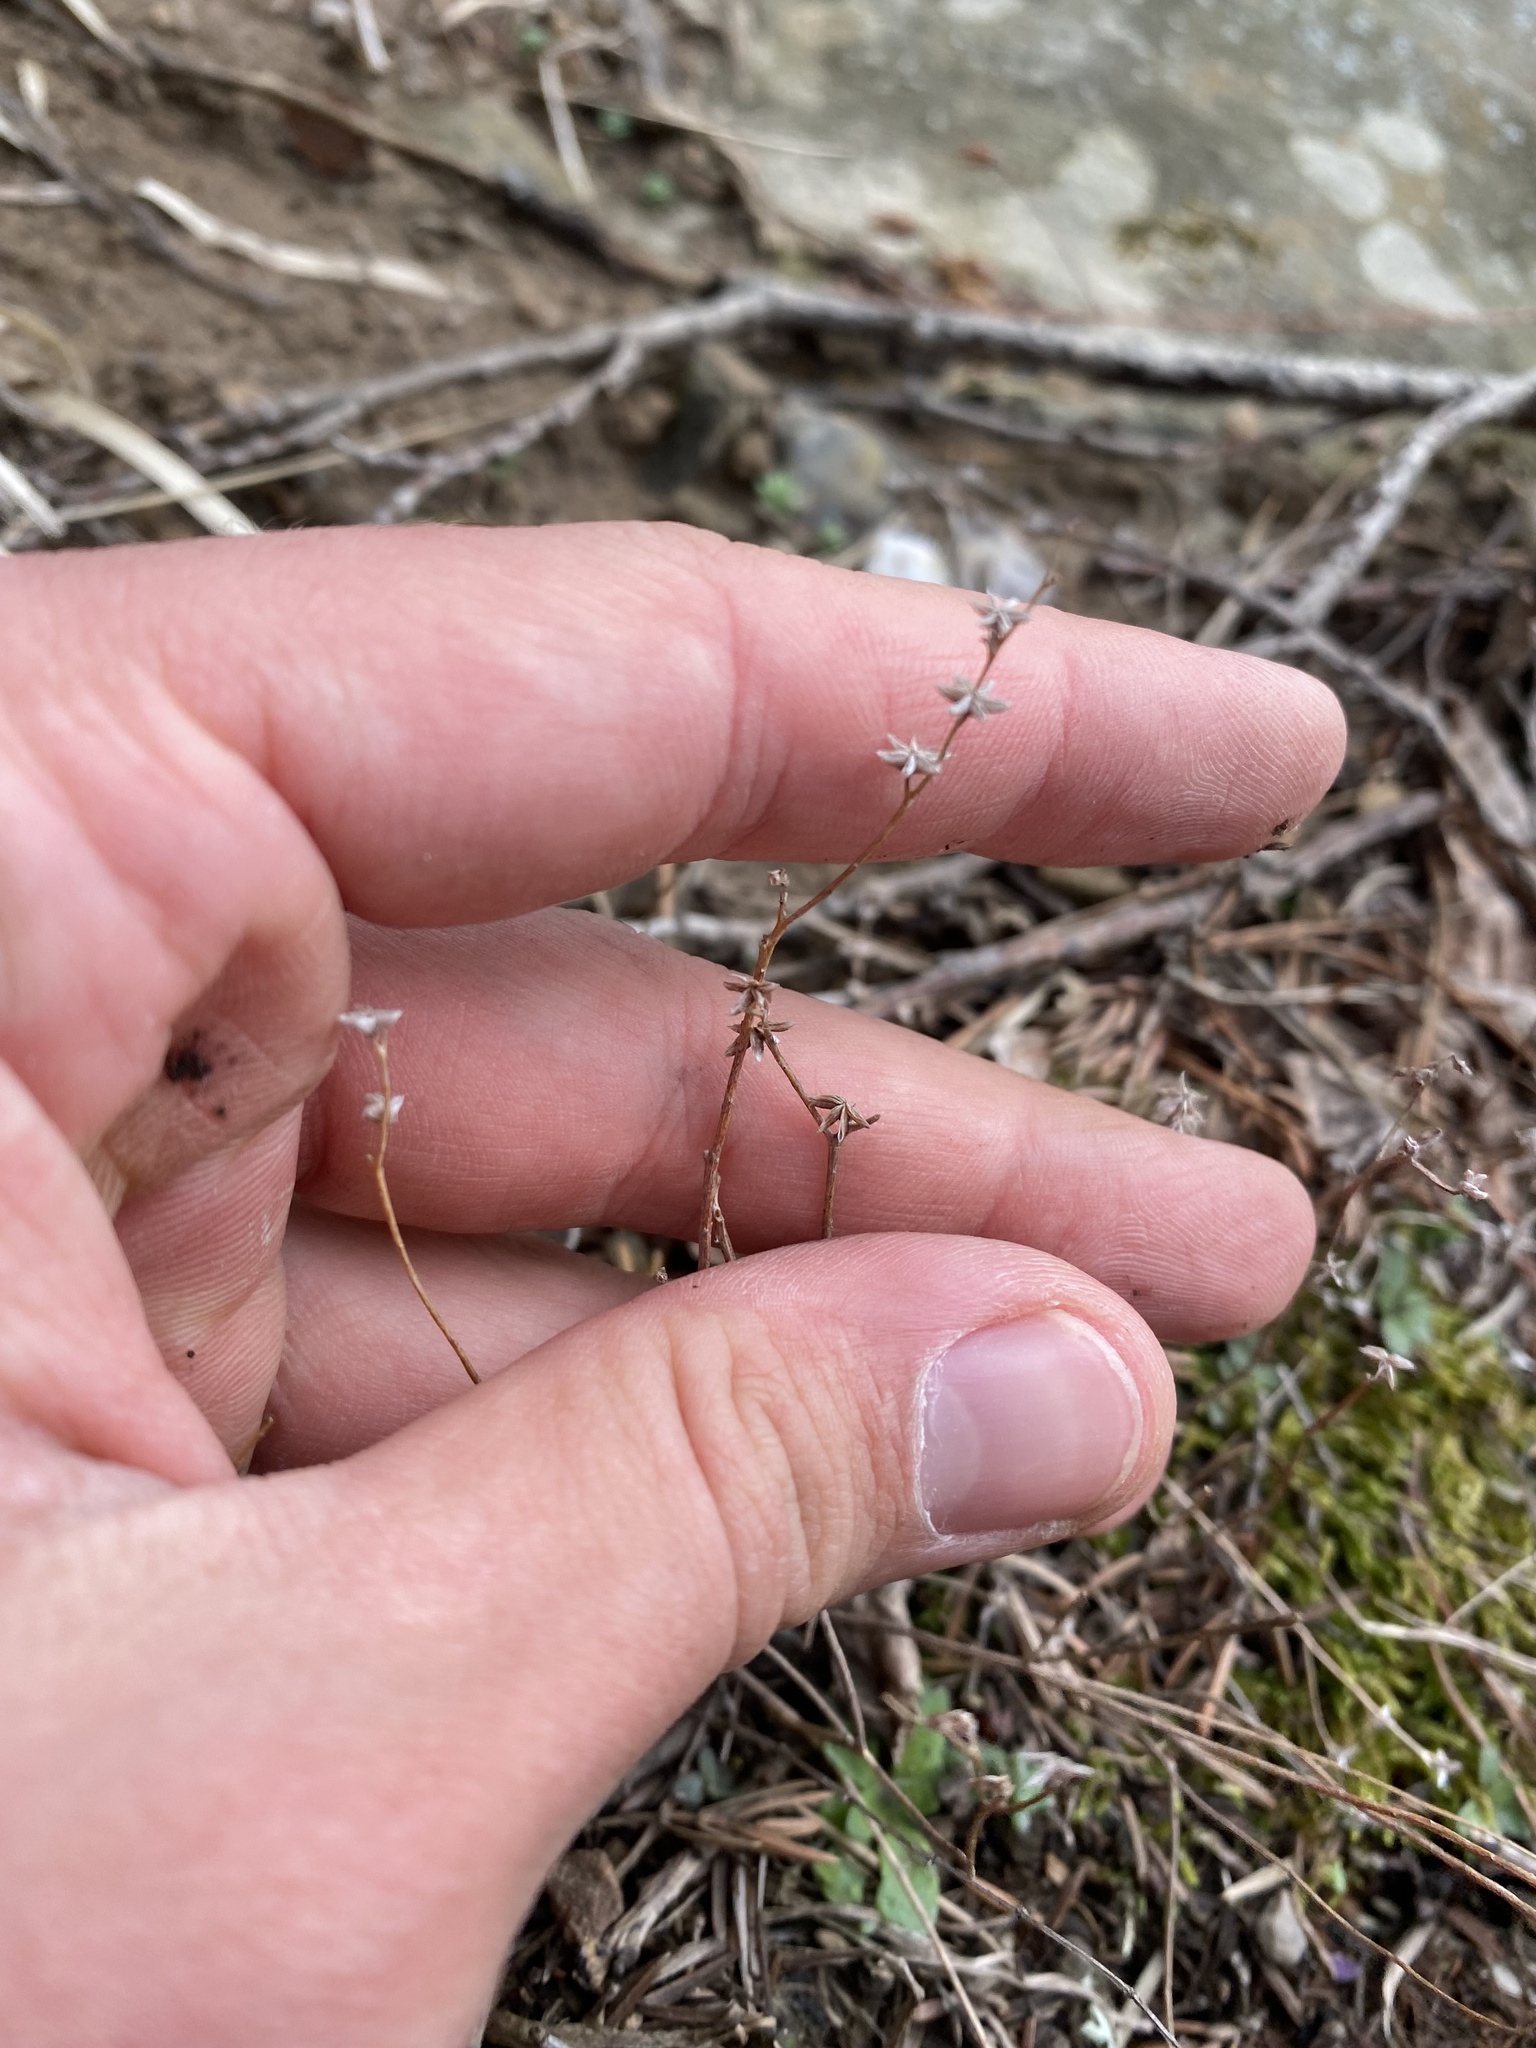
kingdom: Plantae
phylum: Tracheophyta
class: Magnoliopsida
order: Saxifragales
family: Crassulaceae
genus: Sedum
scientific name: Sedum hispanicum
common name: Spanish stonecrop
